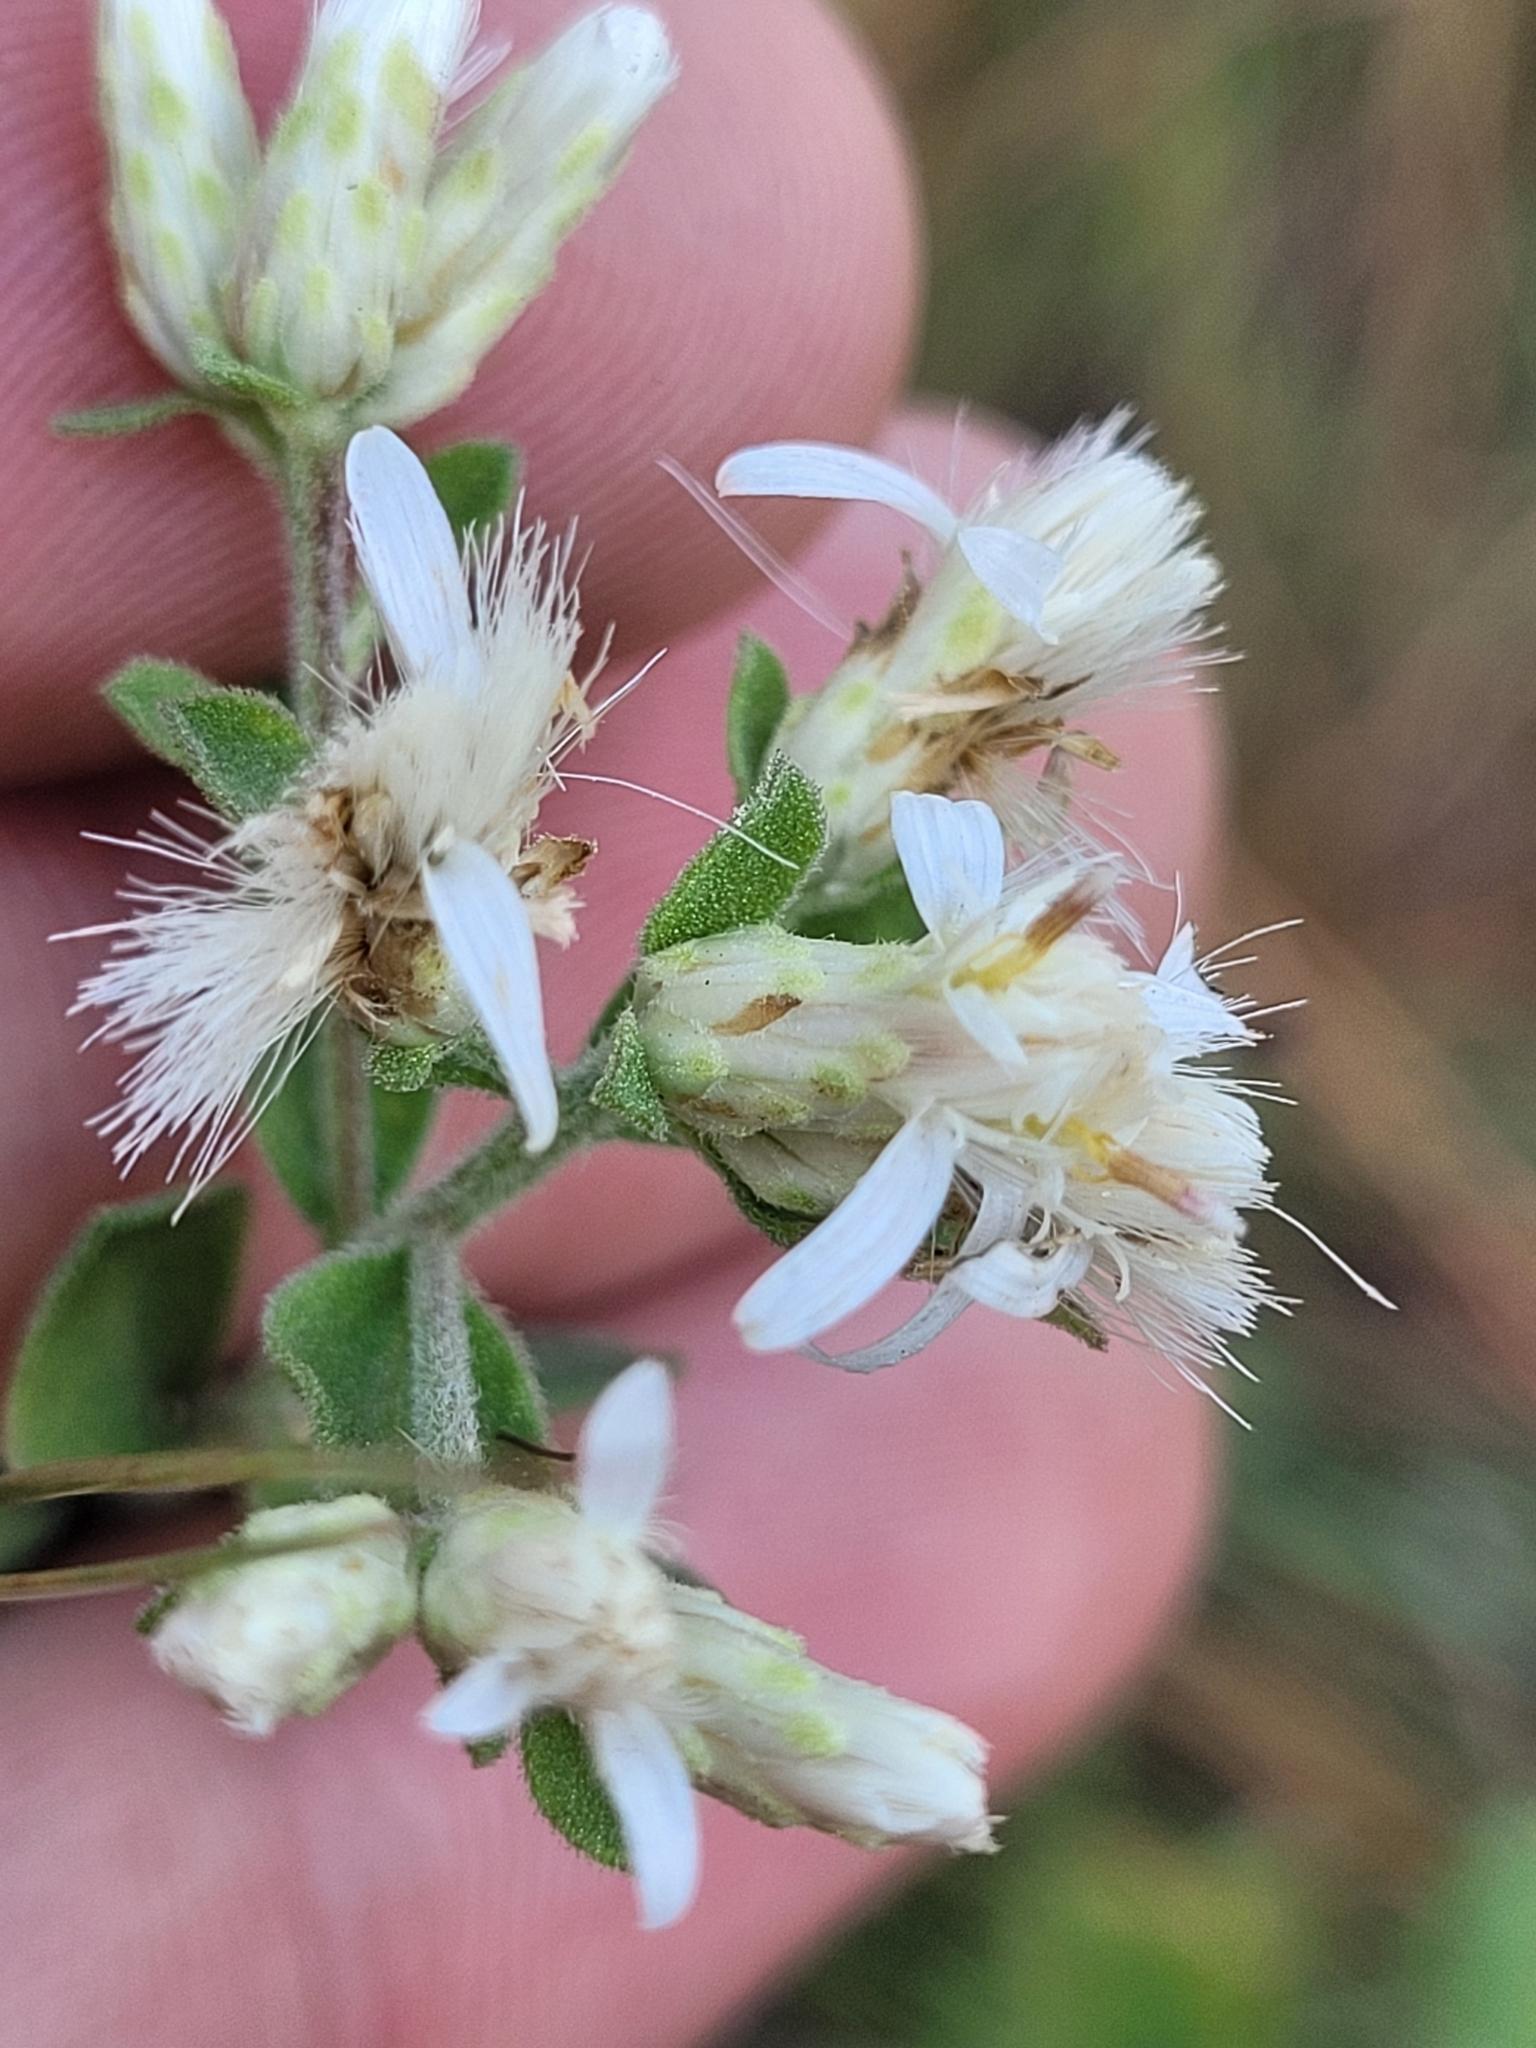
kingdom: Plantae
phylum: Tracheophyta
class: Magnoliopsida
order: Asterales
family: Asteraceae
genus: Sericocarpus
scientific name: Sericocarpus tortifolius
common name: Dixie aster
